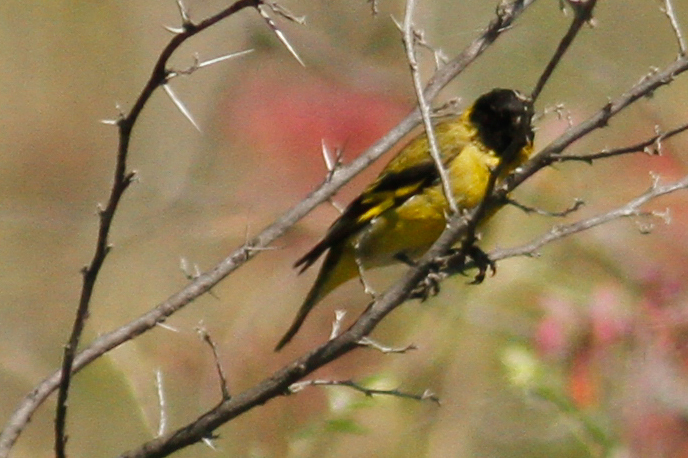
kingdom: Animalia
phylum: Chordata
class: Aves
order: Passeriformes
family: Fringillidae
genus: Spinus
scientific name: Spinus magellanicus
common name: Hooded siskin
